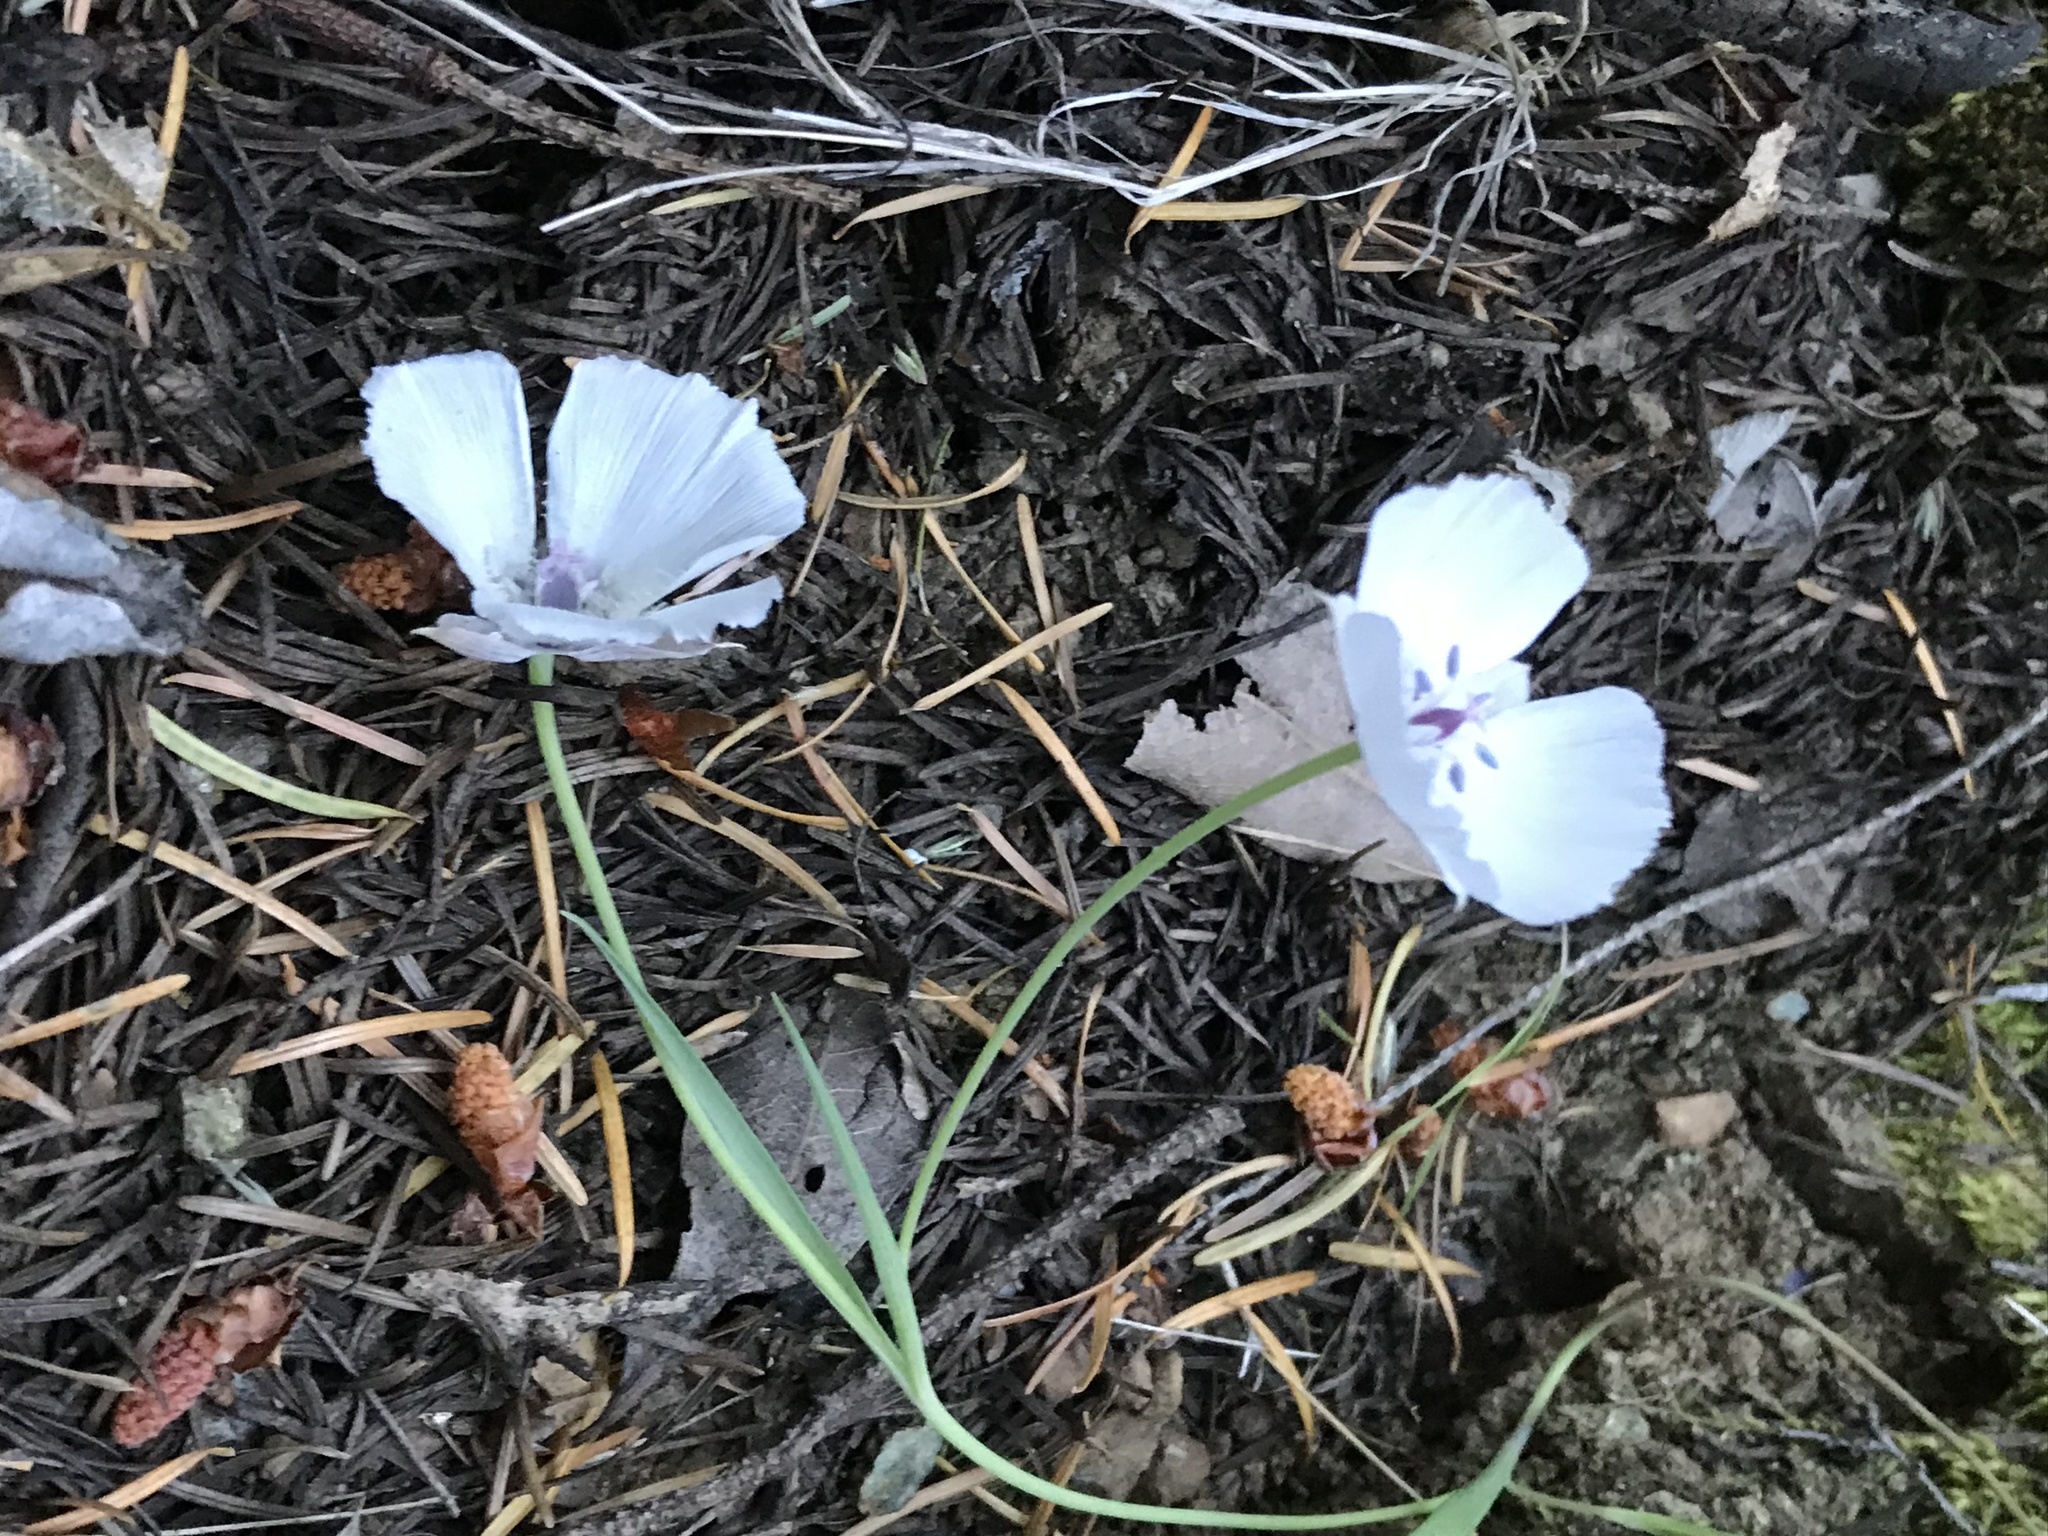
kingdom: Plantae
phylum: Tracheophyta
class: Liliopsida
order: Liliales
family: Liliaceae
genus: Calochortus
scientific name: Calochortus umbellatus
